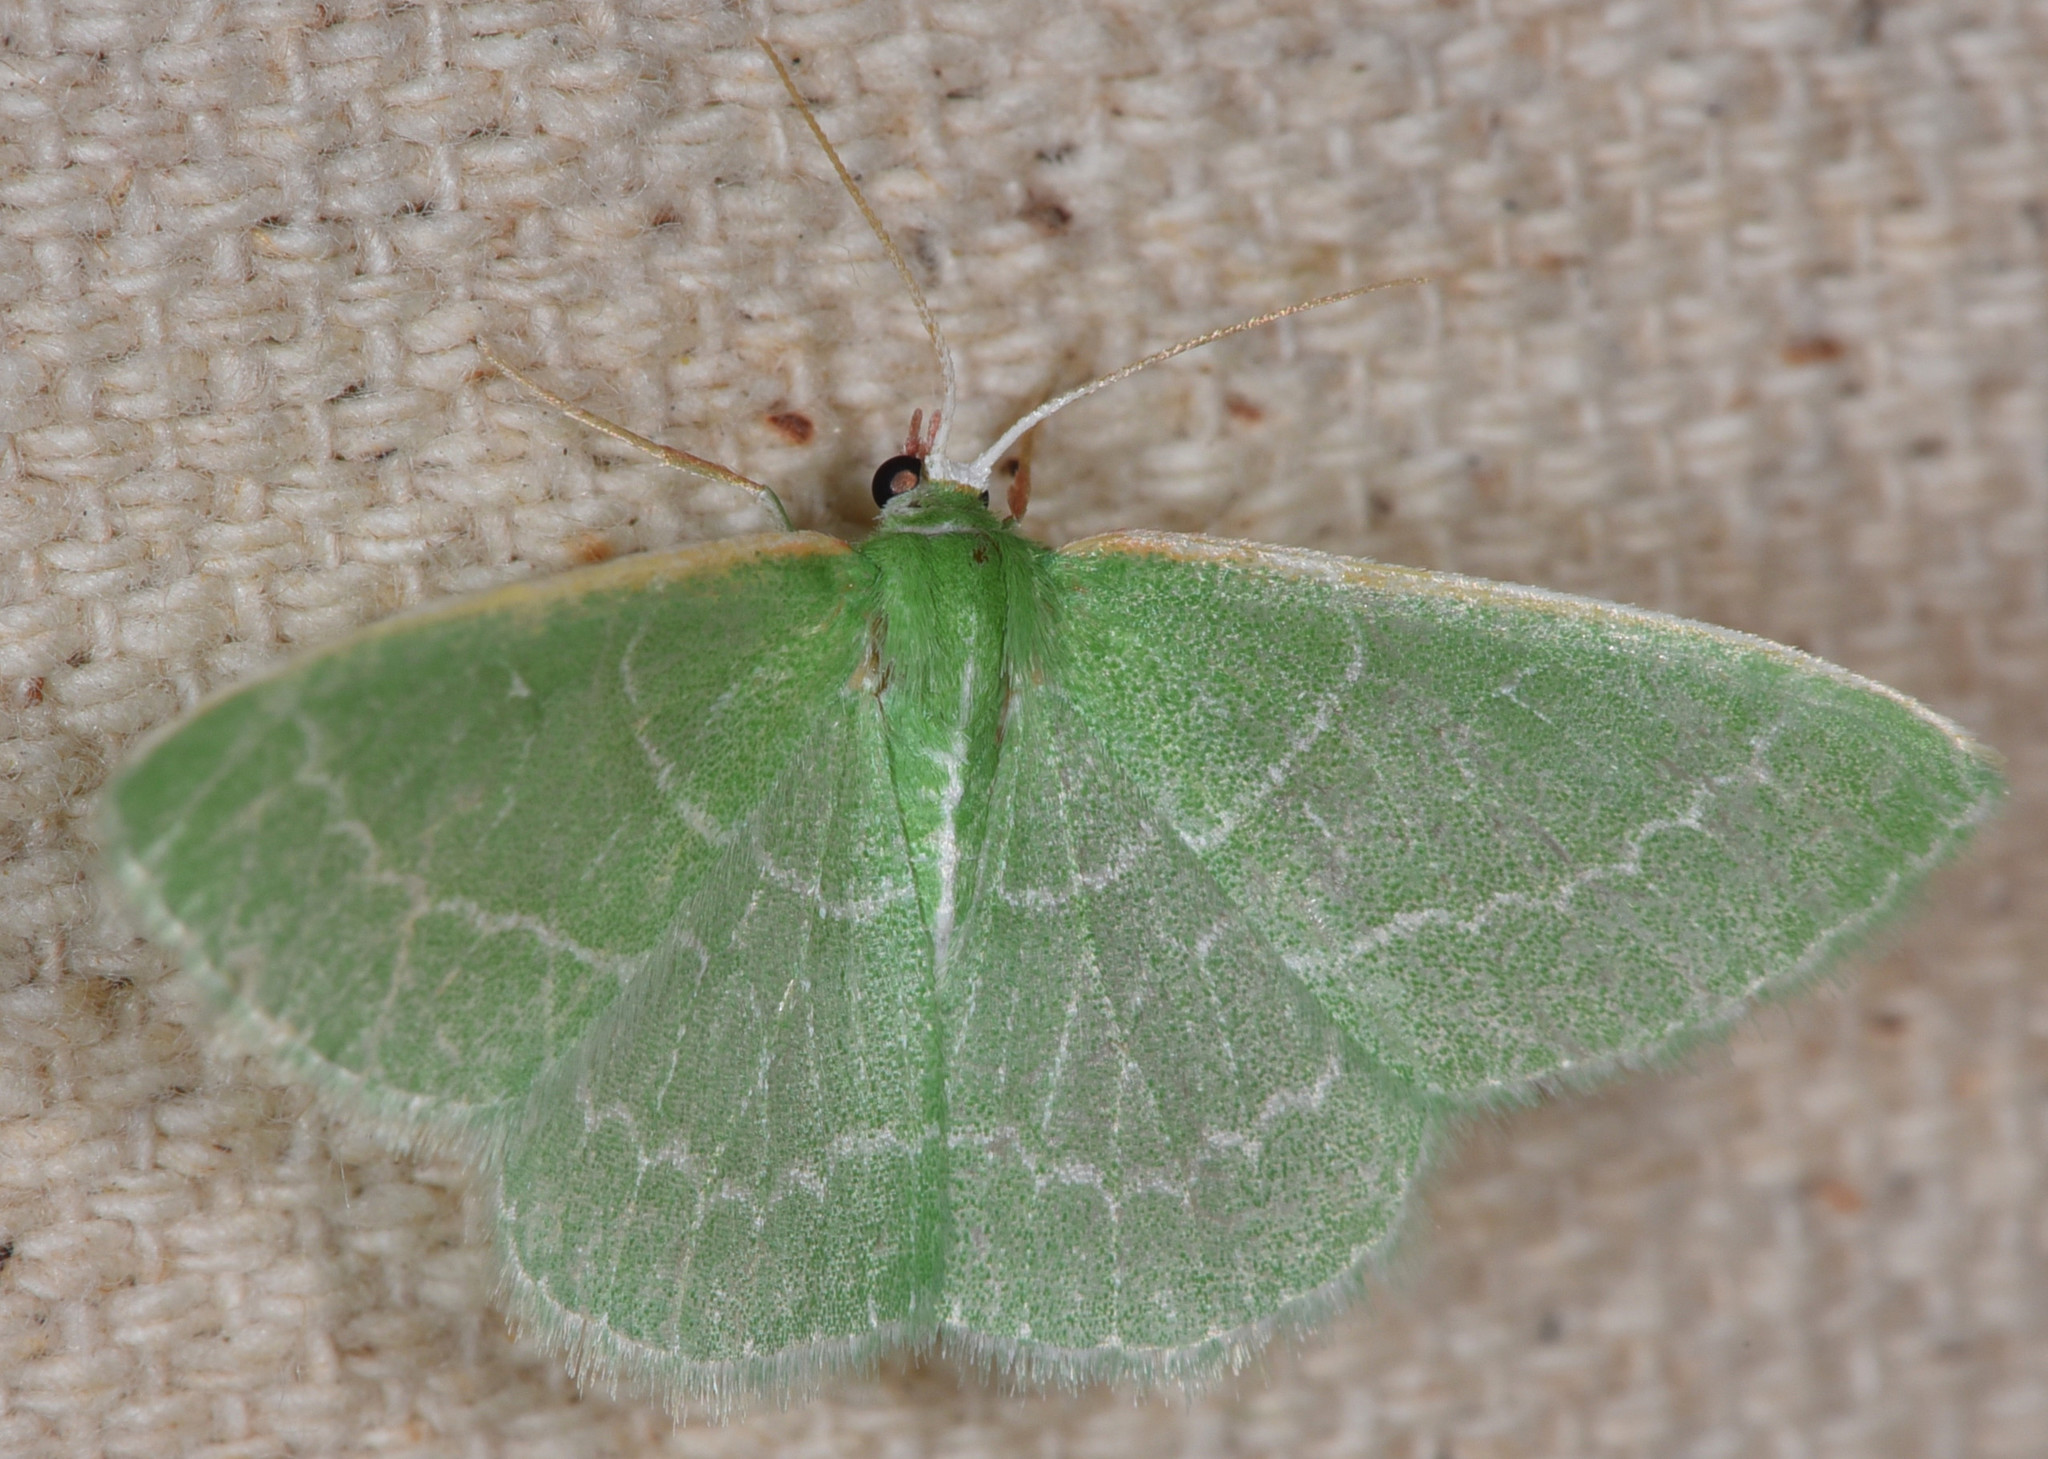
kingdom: Animalia
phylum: Arthropoda
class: Insecta
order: Lepidoptera
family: Geometridae
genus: Synchlora
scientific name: Synchlora aerata
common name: Wavy-lined emerald
